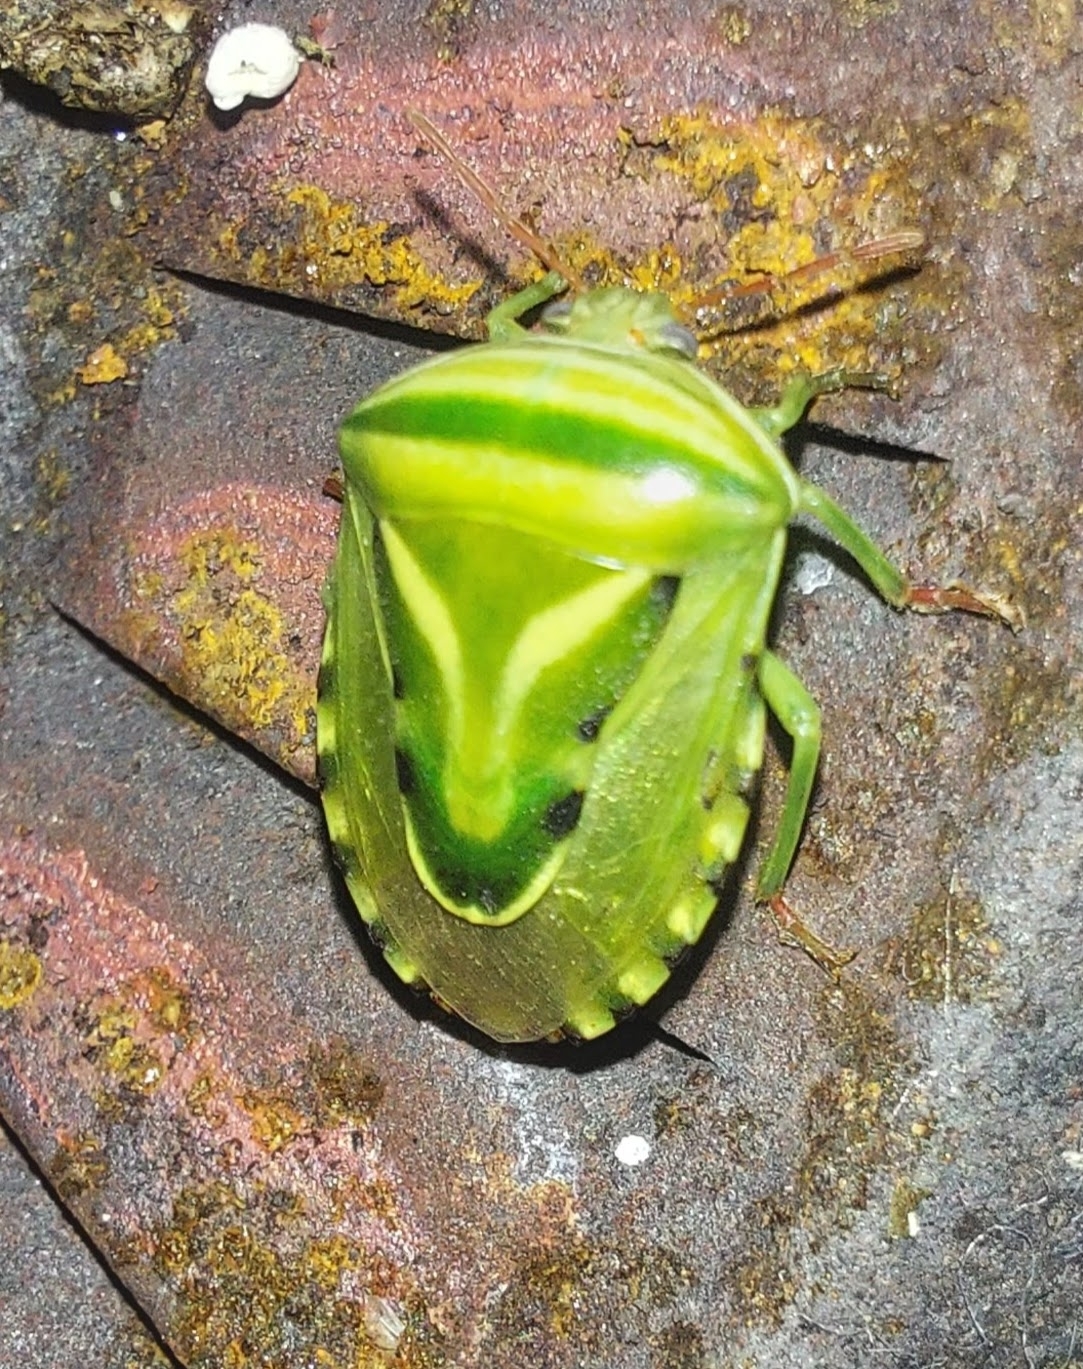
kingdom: Animalia
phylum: Arthropoda
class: Insecta
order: Hemiptera
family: Acanthosomatidae
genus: Lindbergicoris
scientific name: Lindbergicoris Platacantha lutea
